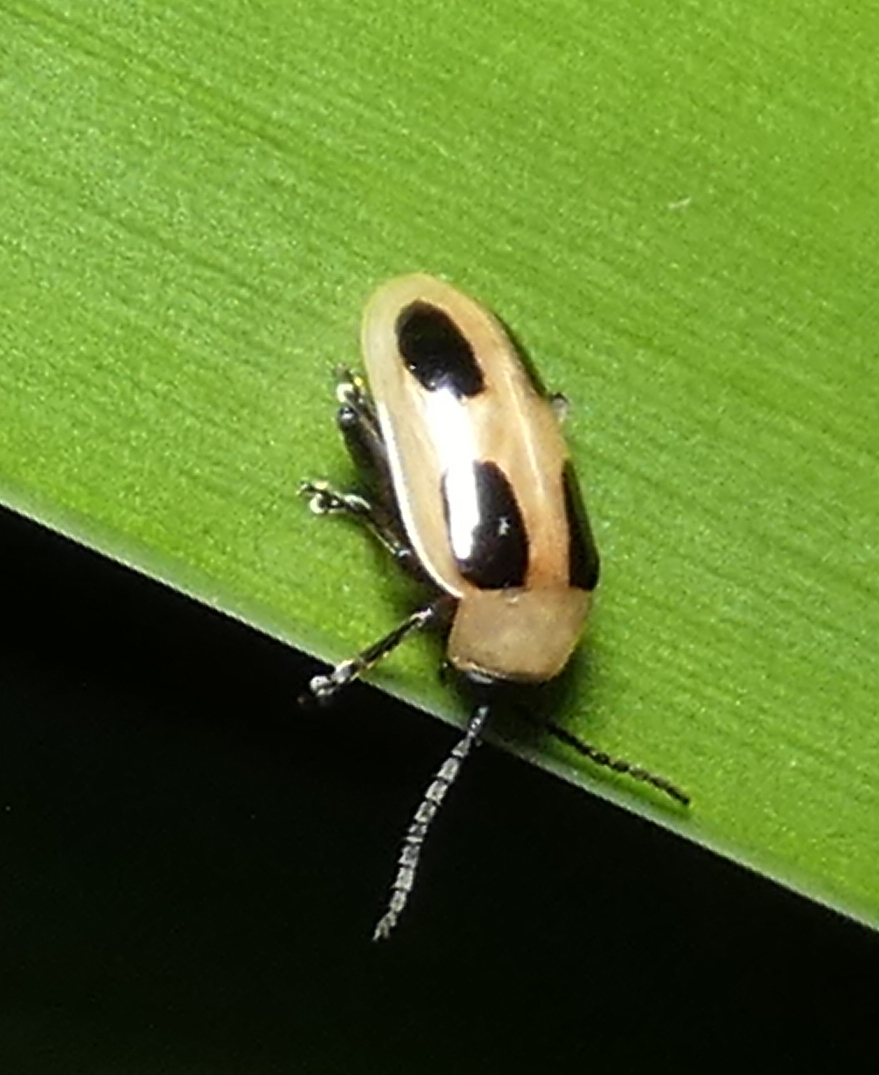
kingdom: Animalia
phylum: Arthropoda
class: Insecta
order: Coleoptera
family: Chrysomelidae
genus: Lacpatica
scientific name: Lacpatica
